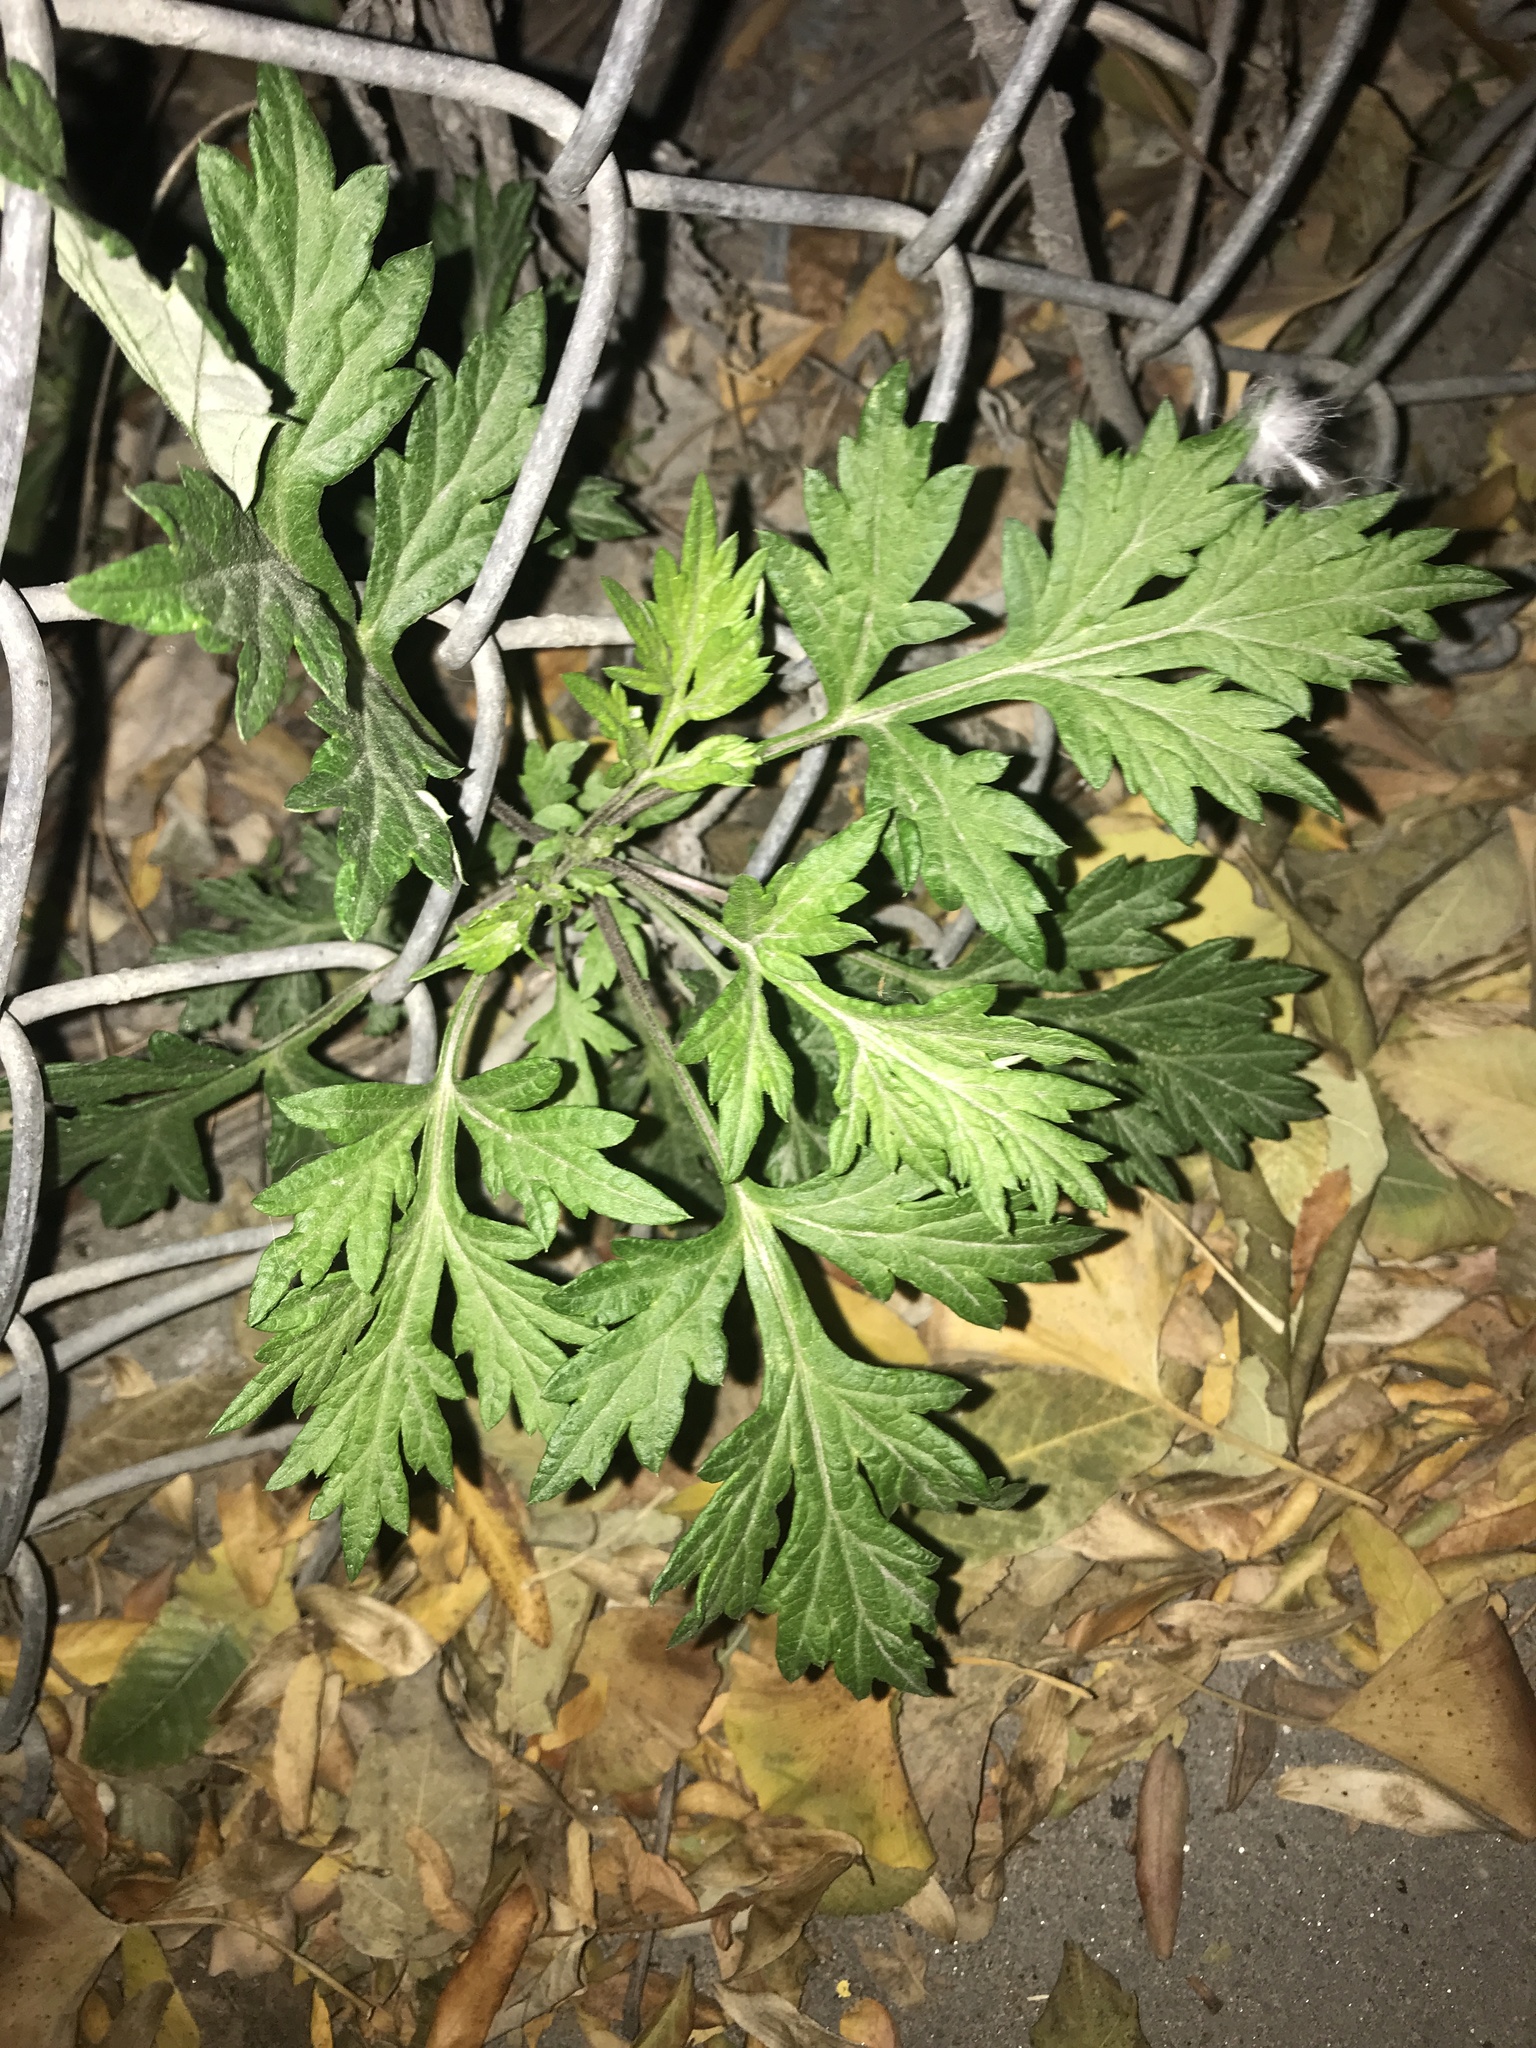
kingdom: Plantae
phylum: Tracheophyta
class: Magnoliopsida
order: Asterales
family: Asteraceae
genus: Artemisia
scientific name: Artemisia vulgaris
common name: Mugwort
